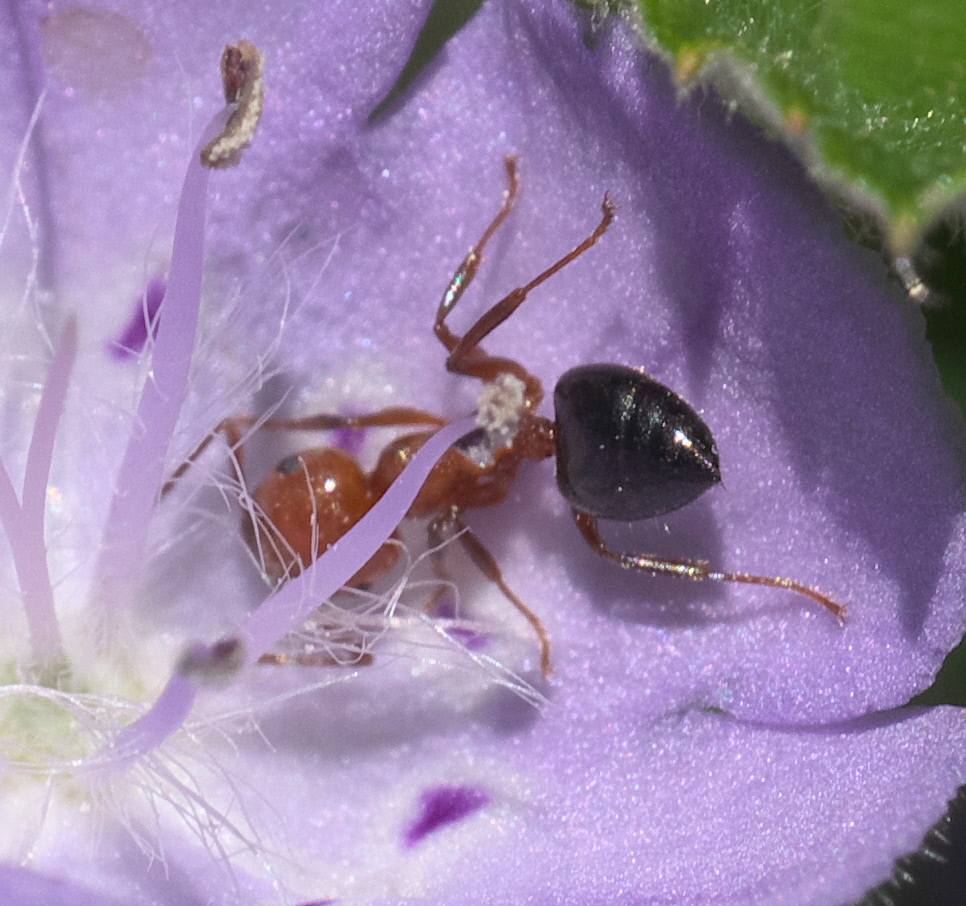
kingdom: Animalia
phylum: Arthropoda
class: Insecta
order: Hymenoptera
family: Formicidae
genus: Crematogaster
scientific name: Crematogaster laeviuscula
